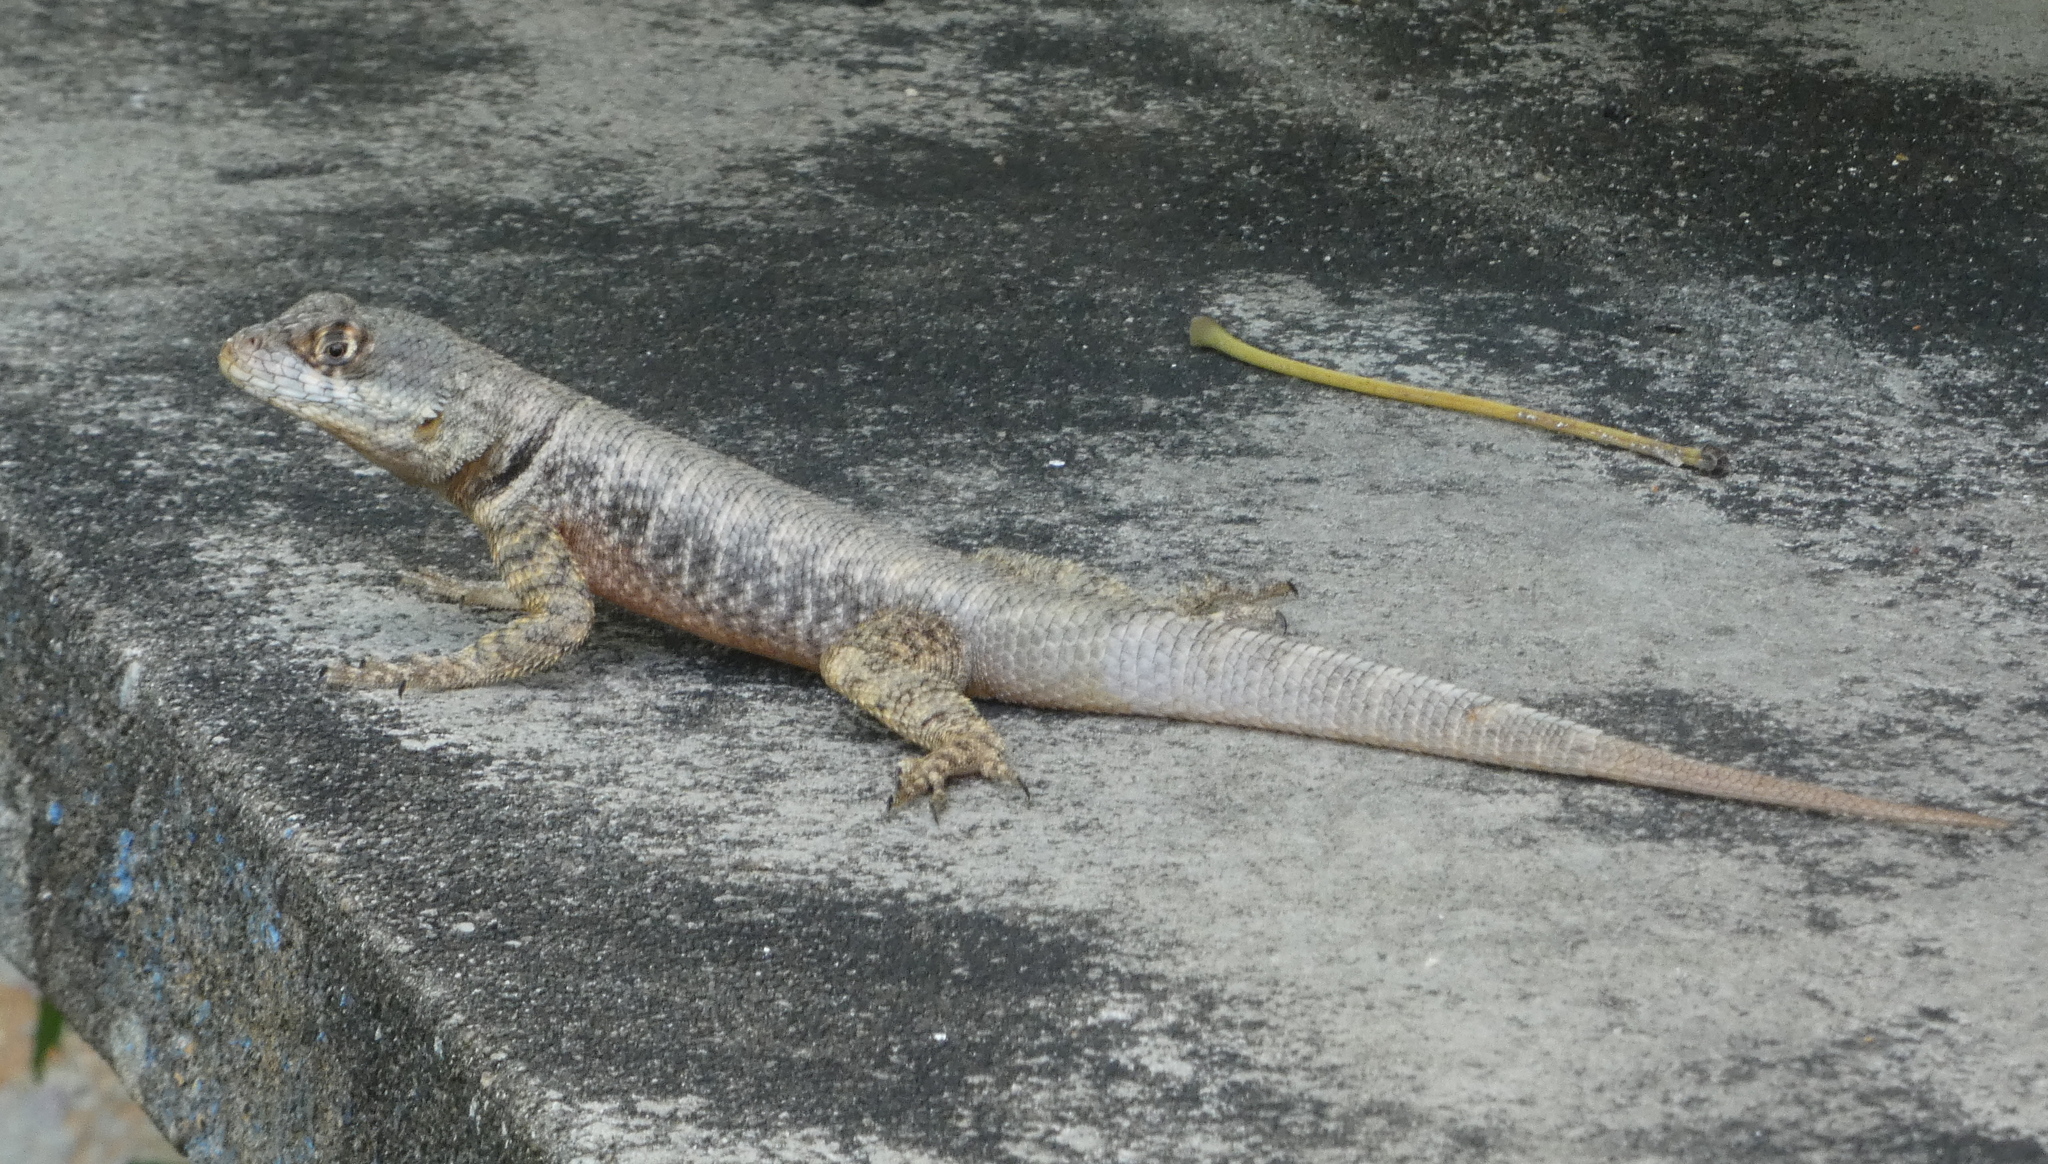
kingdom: Animalia
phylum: Chordata
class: Squamata
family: Tropiduridae
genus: Tropidurus
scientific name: Tropidurus hispidus
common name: Peters' lava lizard
